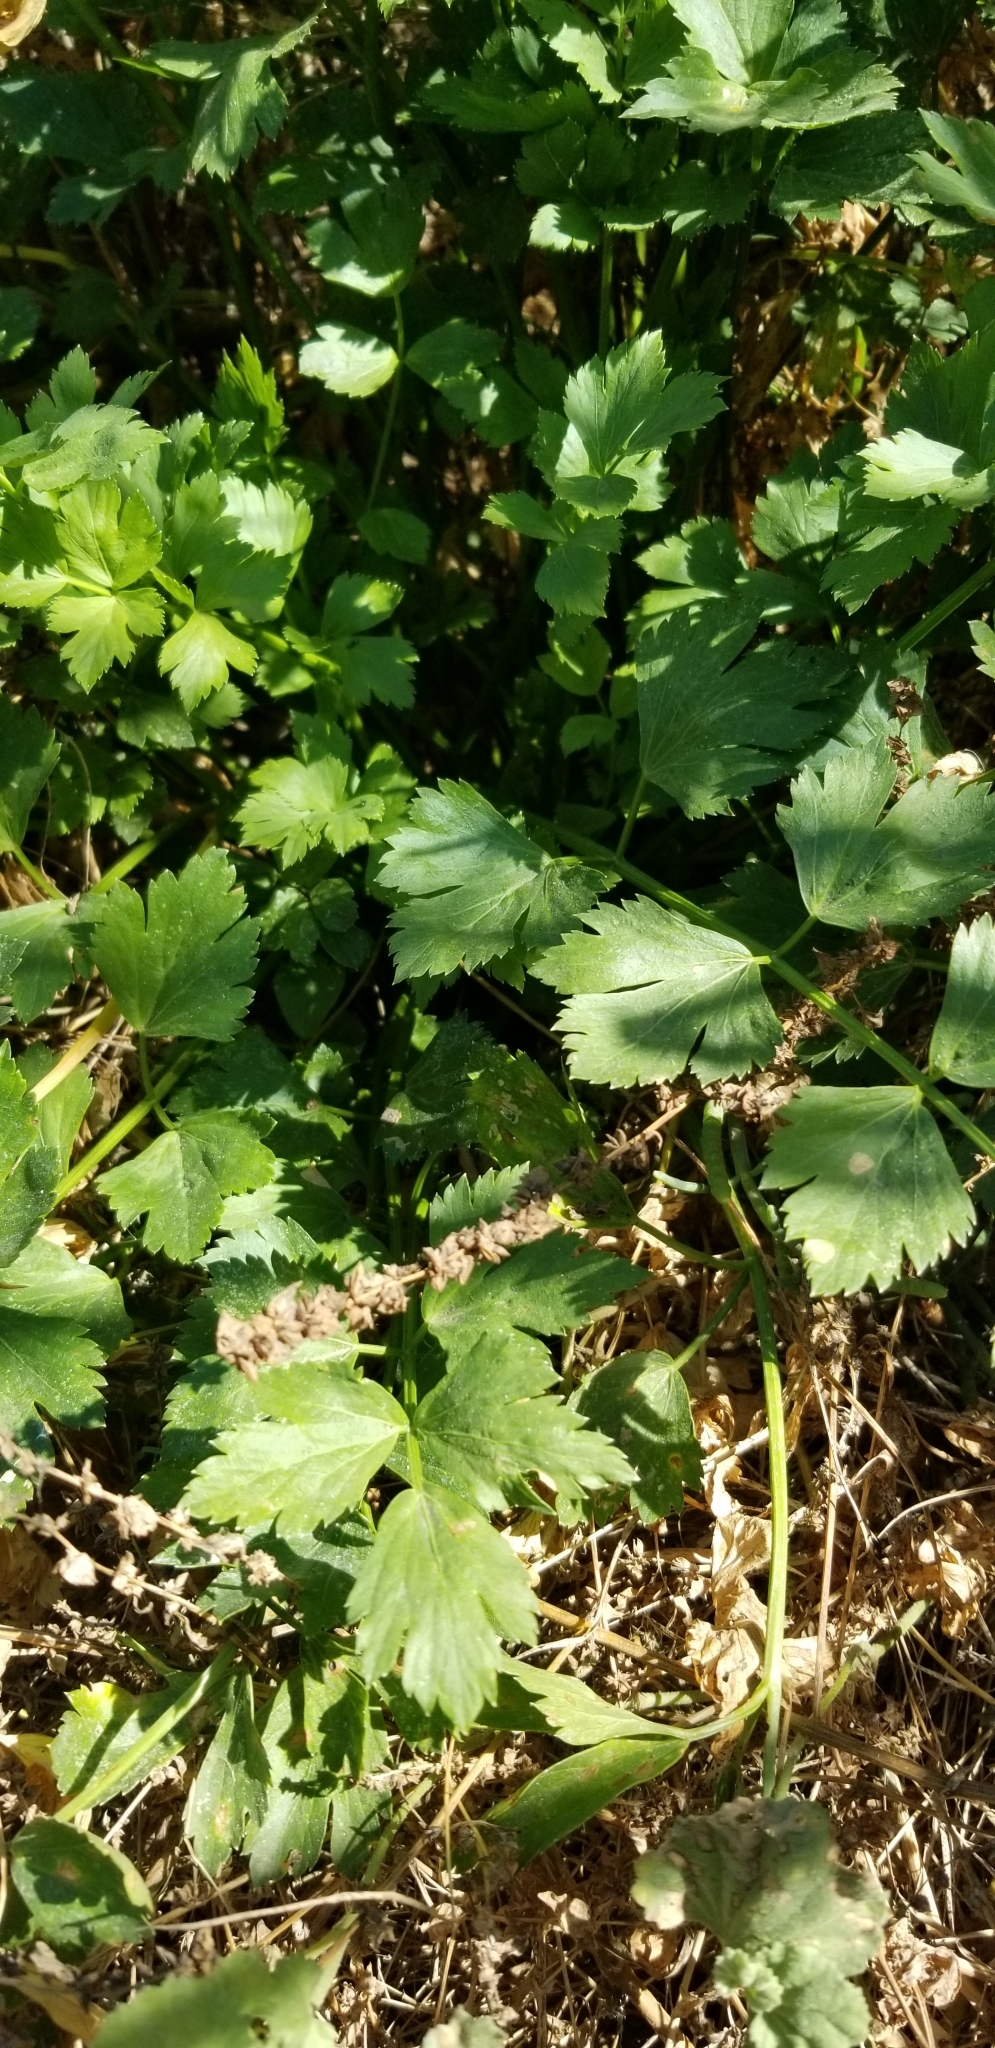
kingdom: Plantae
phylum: Tracheophyta
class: Magnoliopsida
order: Apiales
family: Apiaceae
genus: Apium
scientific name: Apium graveolens
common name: Wild celery
